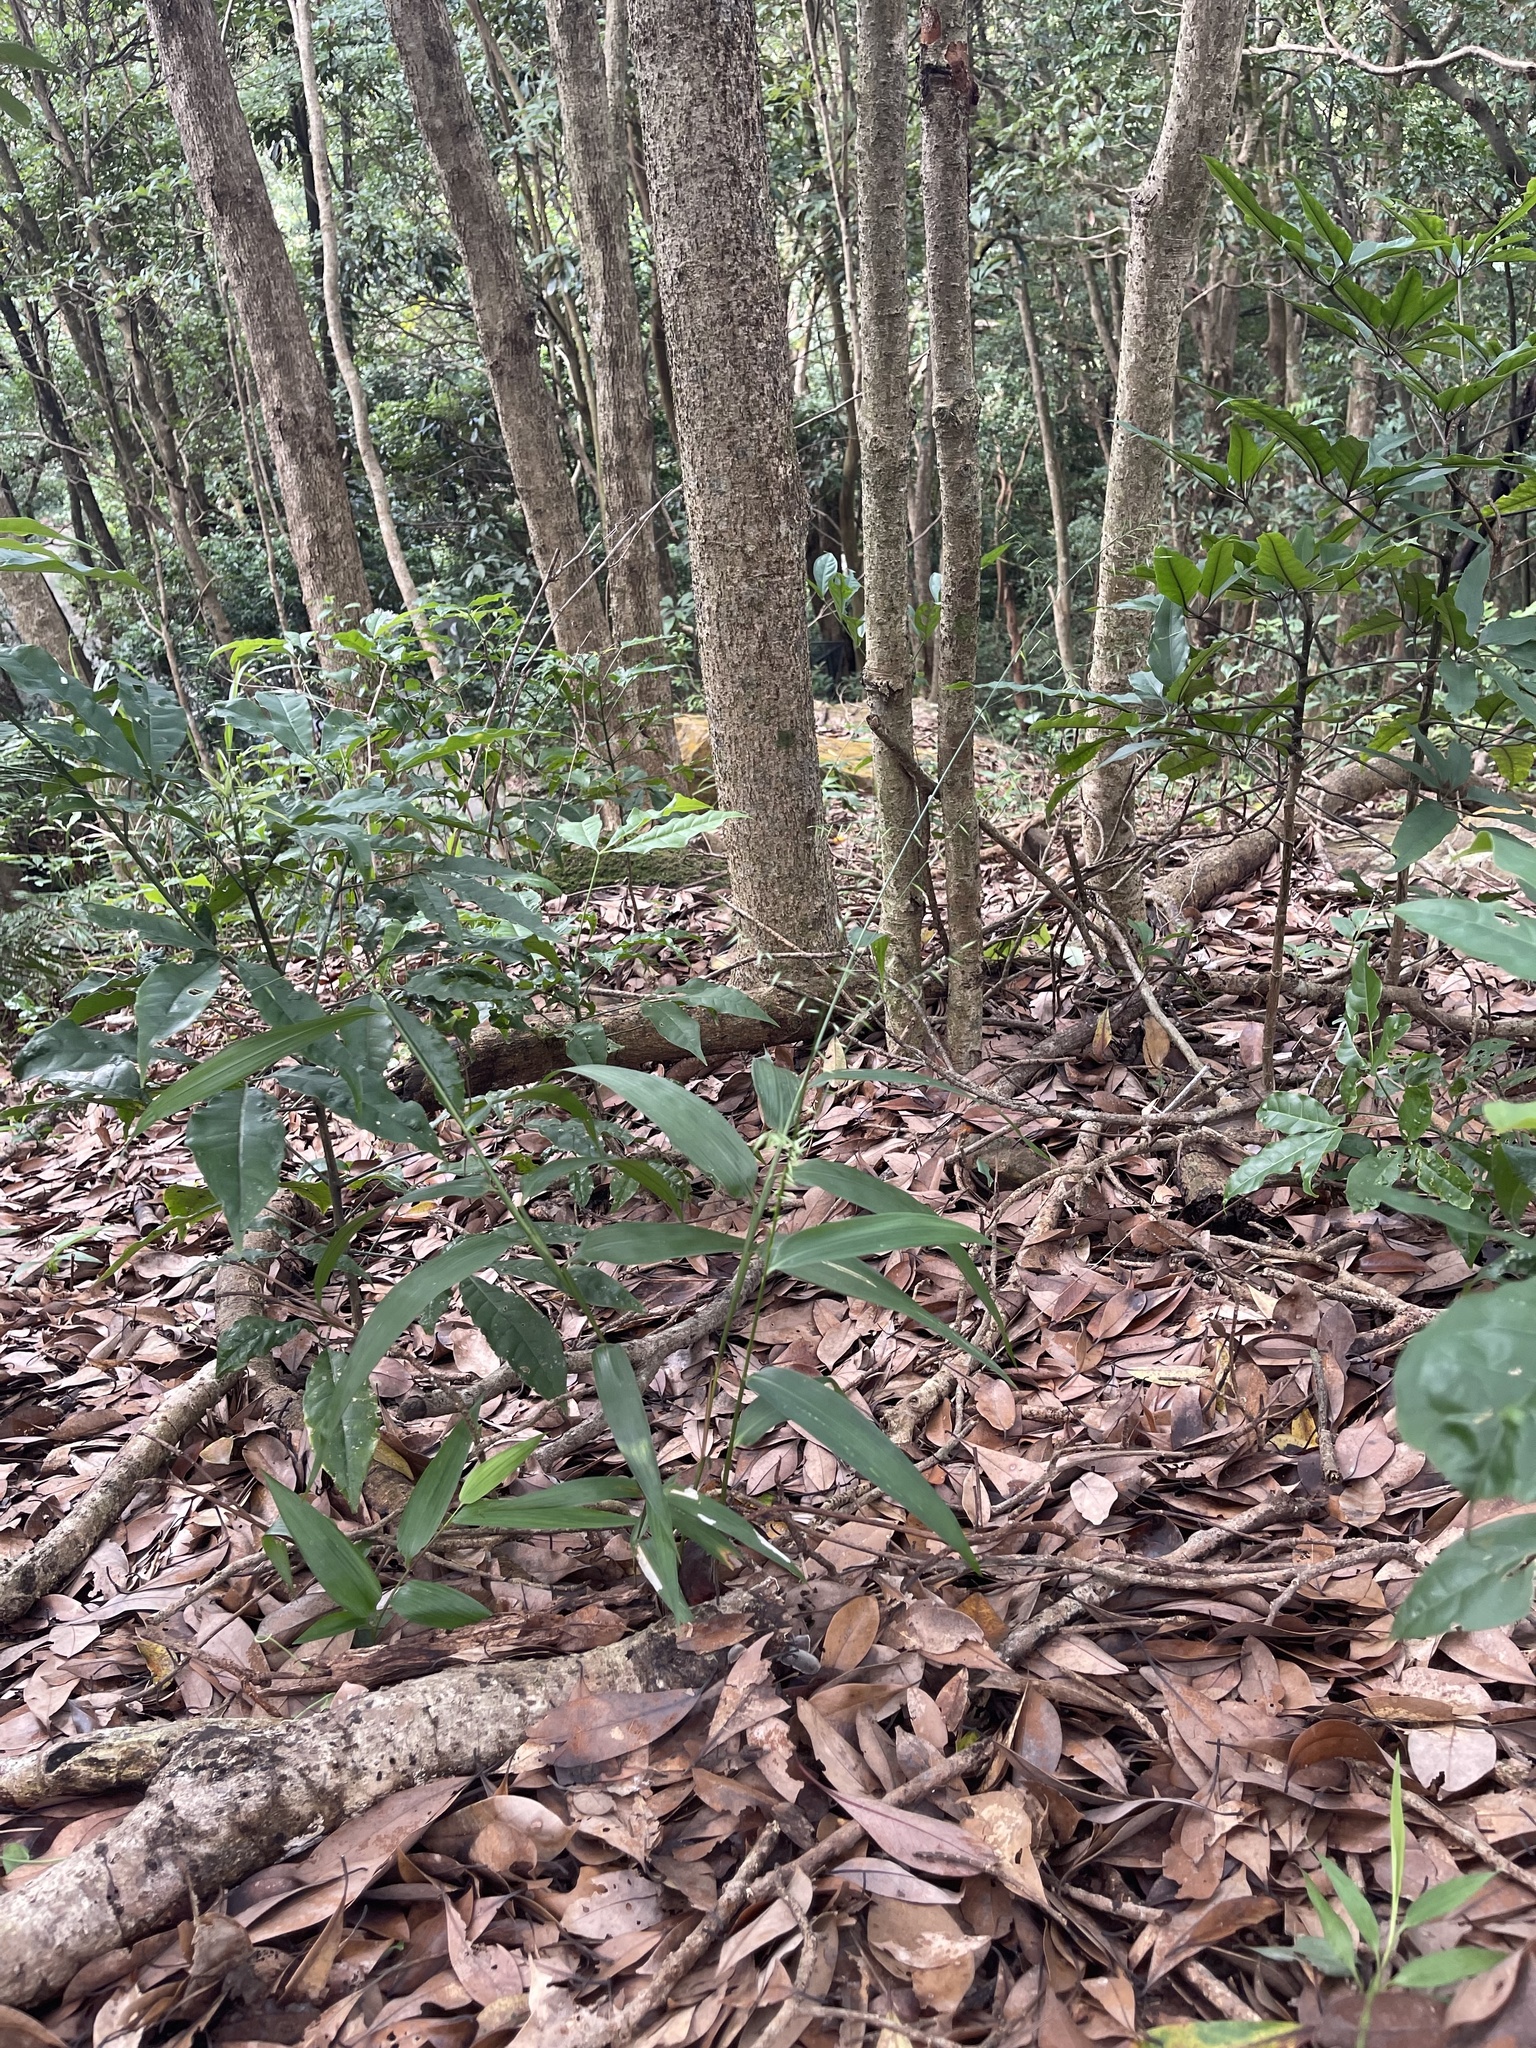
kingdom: Plantae
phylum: Tracheophyta
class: Liliopsida
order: Poales
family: Poaceae
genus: Lophatherum
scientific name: Lophatherum gracile
